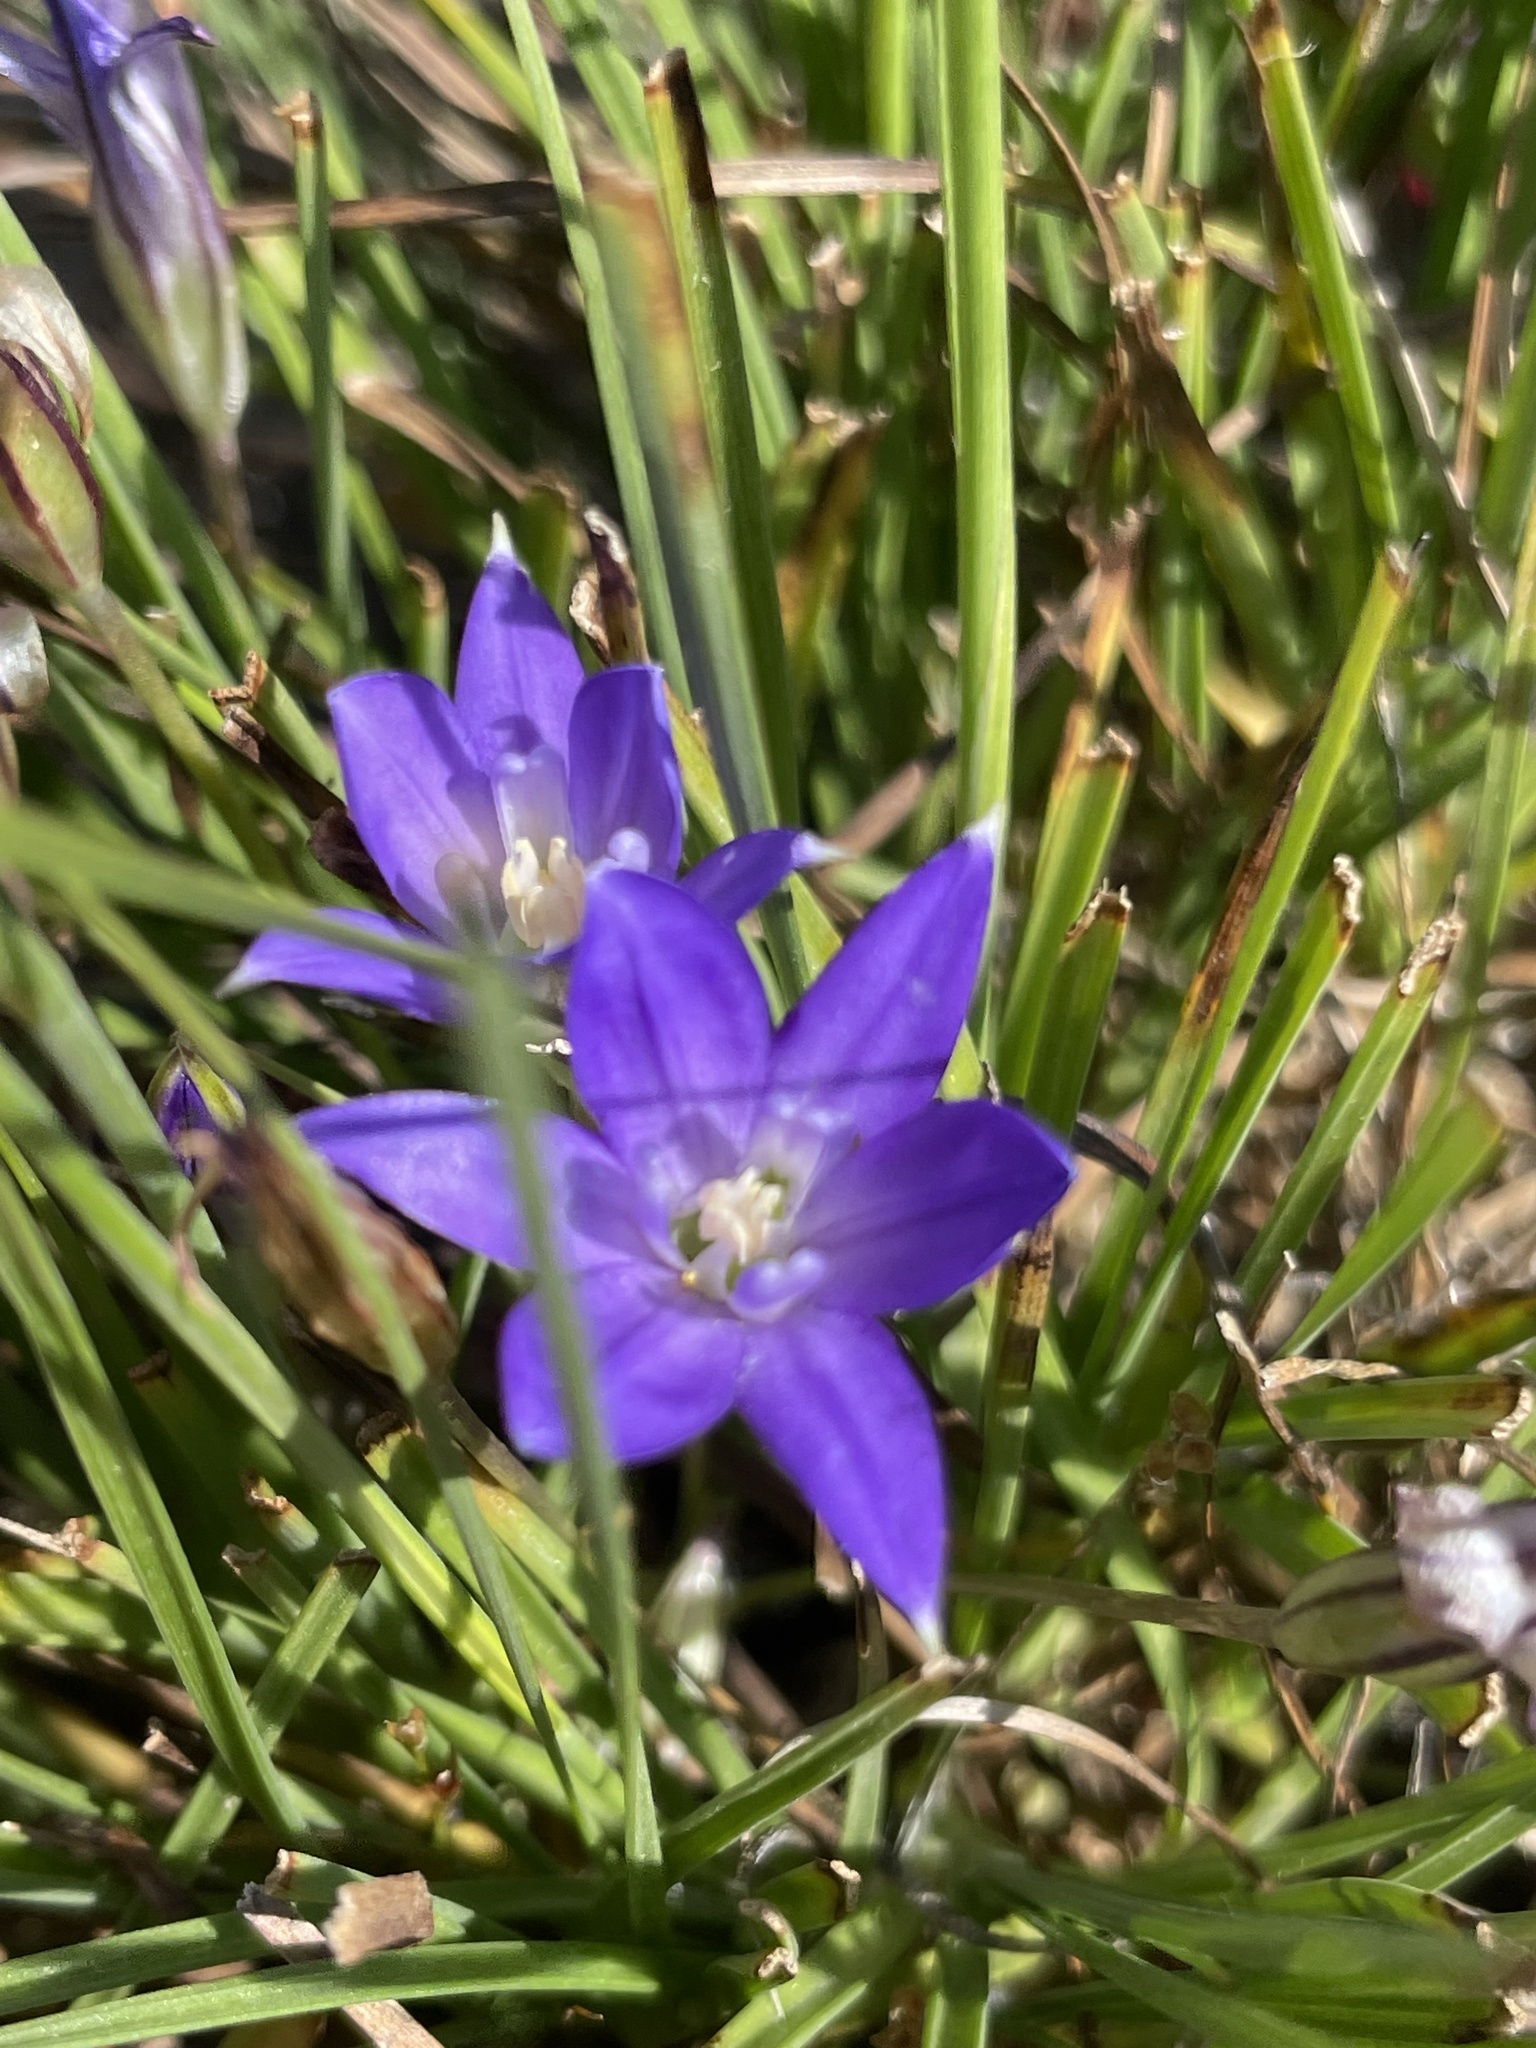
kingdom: Plantae
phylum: Tracheophyta
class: Liliopsida
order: Asparagales
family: Asparagaceae
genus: Brodiaea
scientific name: Brodiaea terrestris
